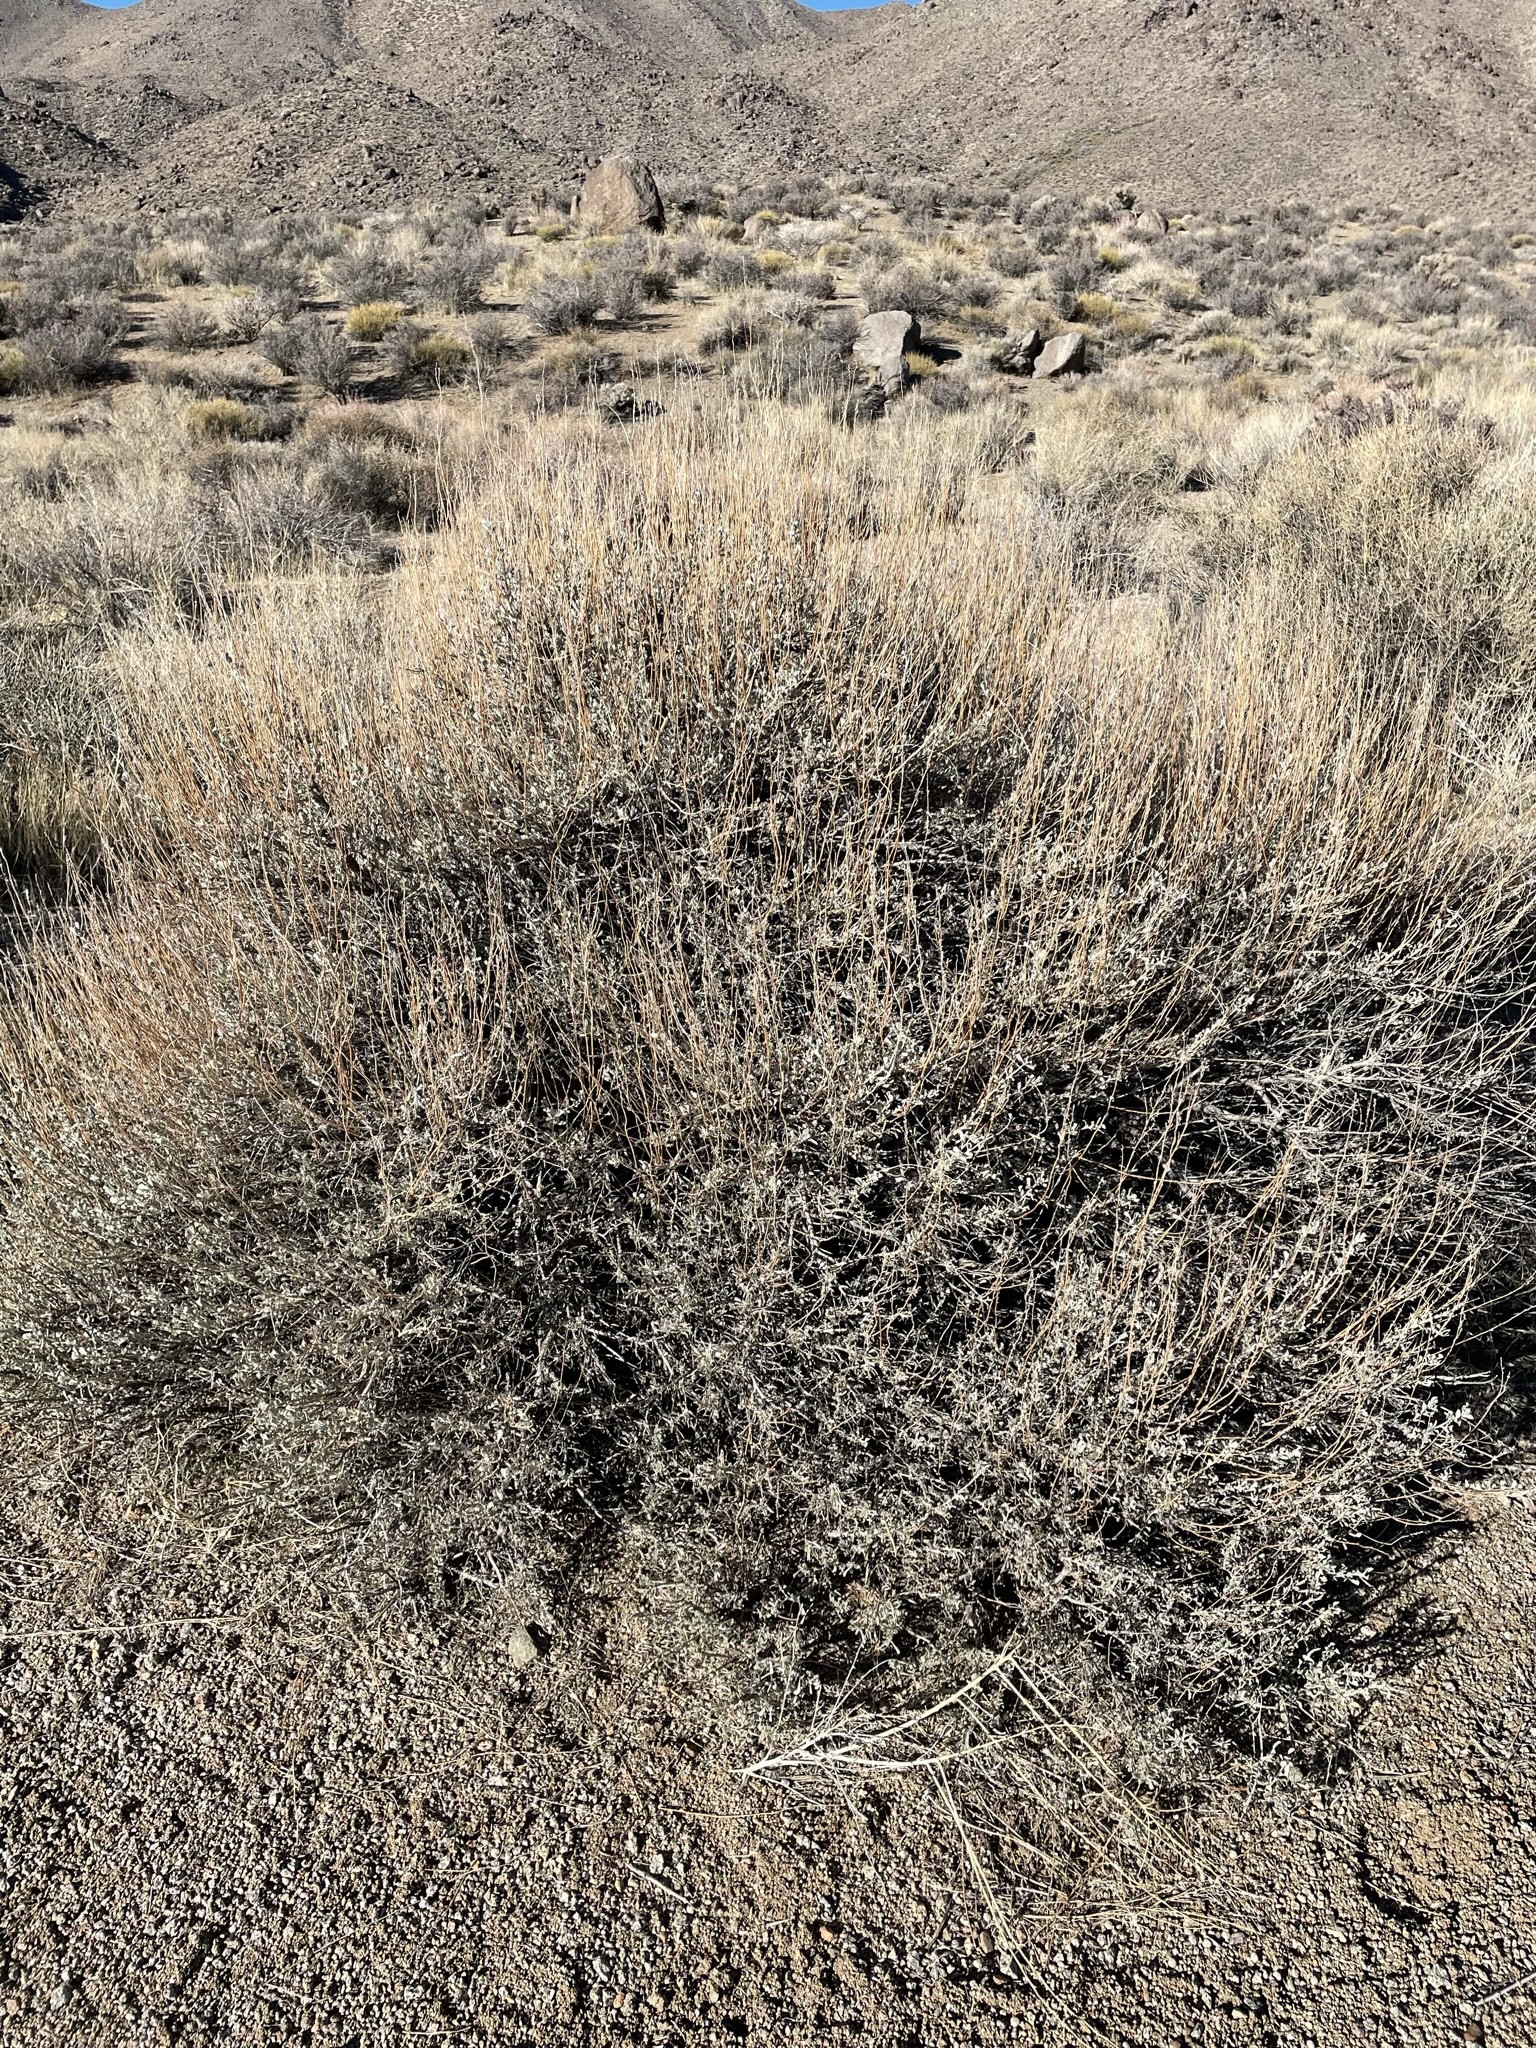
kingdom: Plantae
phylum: Tracheophyta
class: Magnoliopsida
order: Asterales
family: Asteraceae
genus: Artemisia
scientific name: Artemisia tridentata
